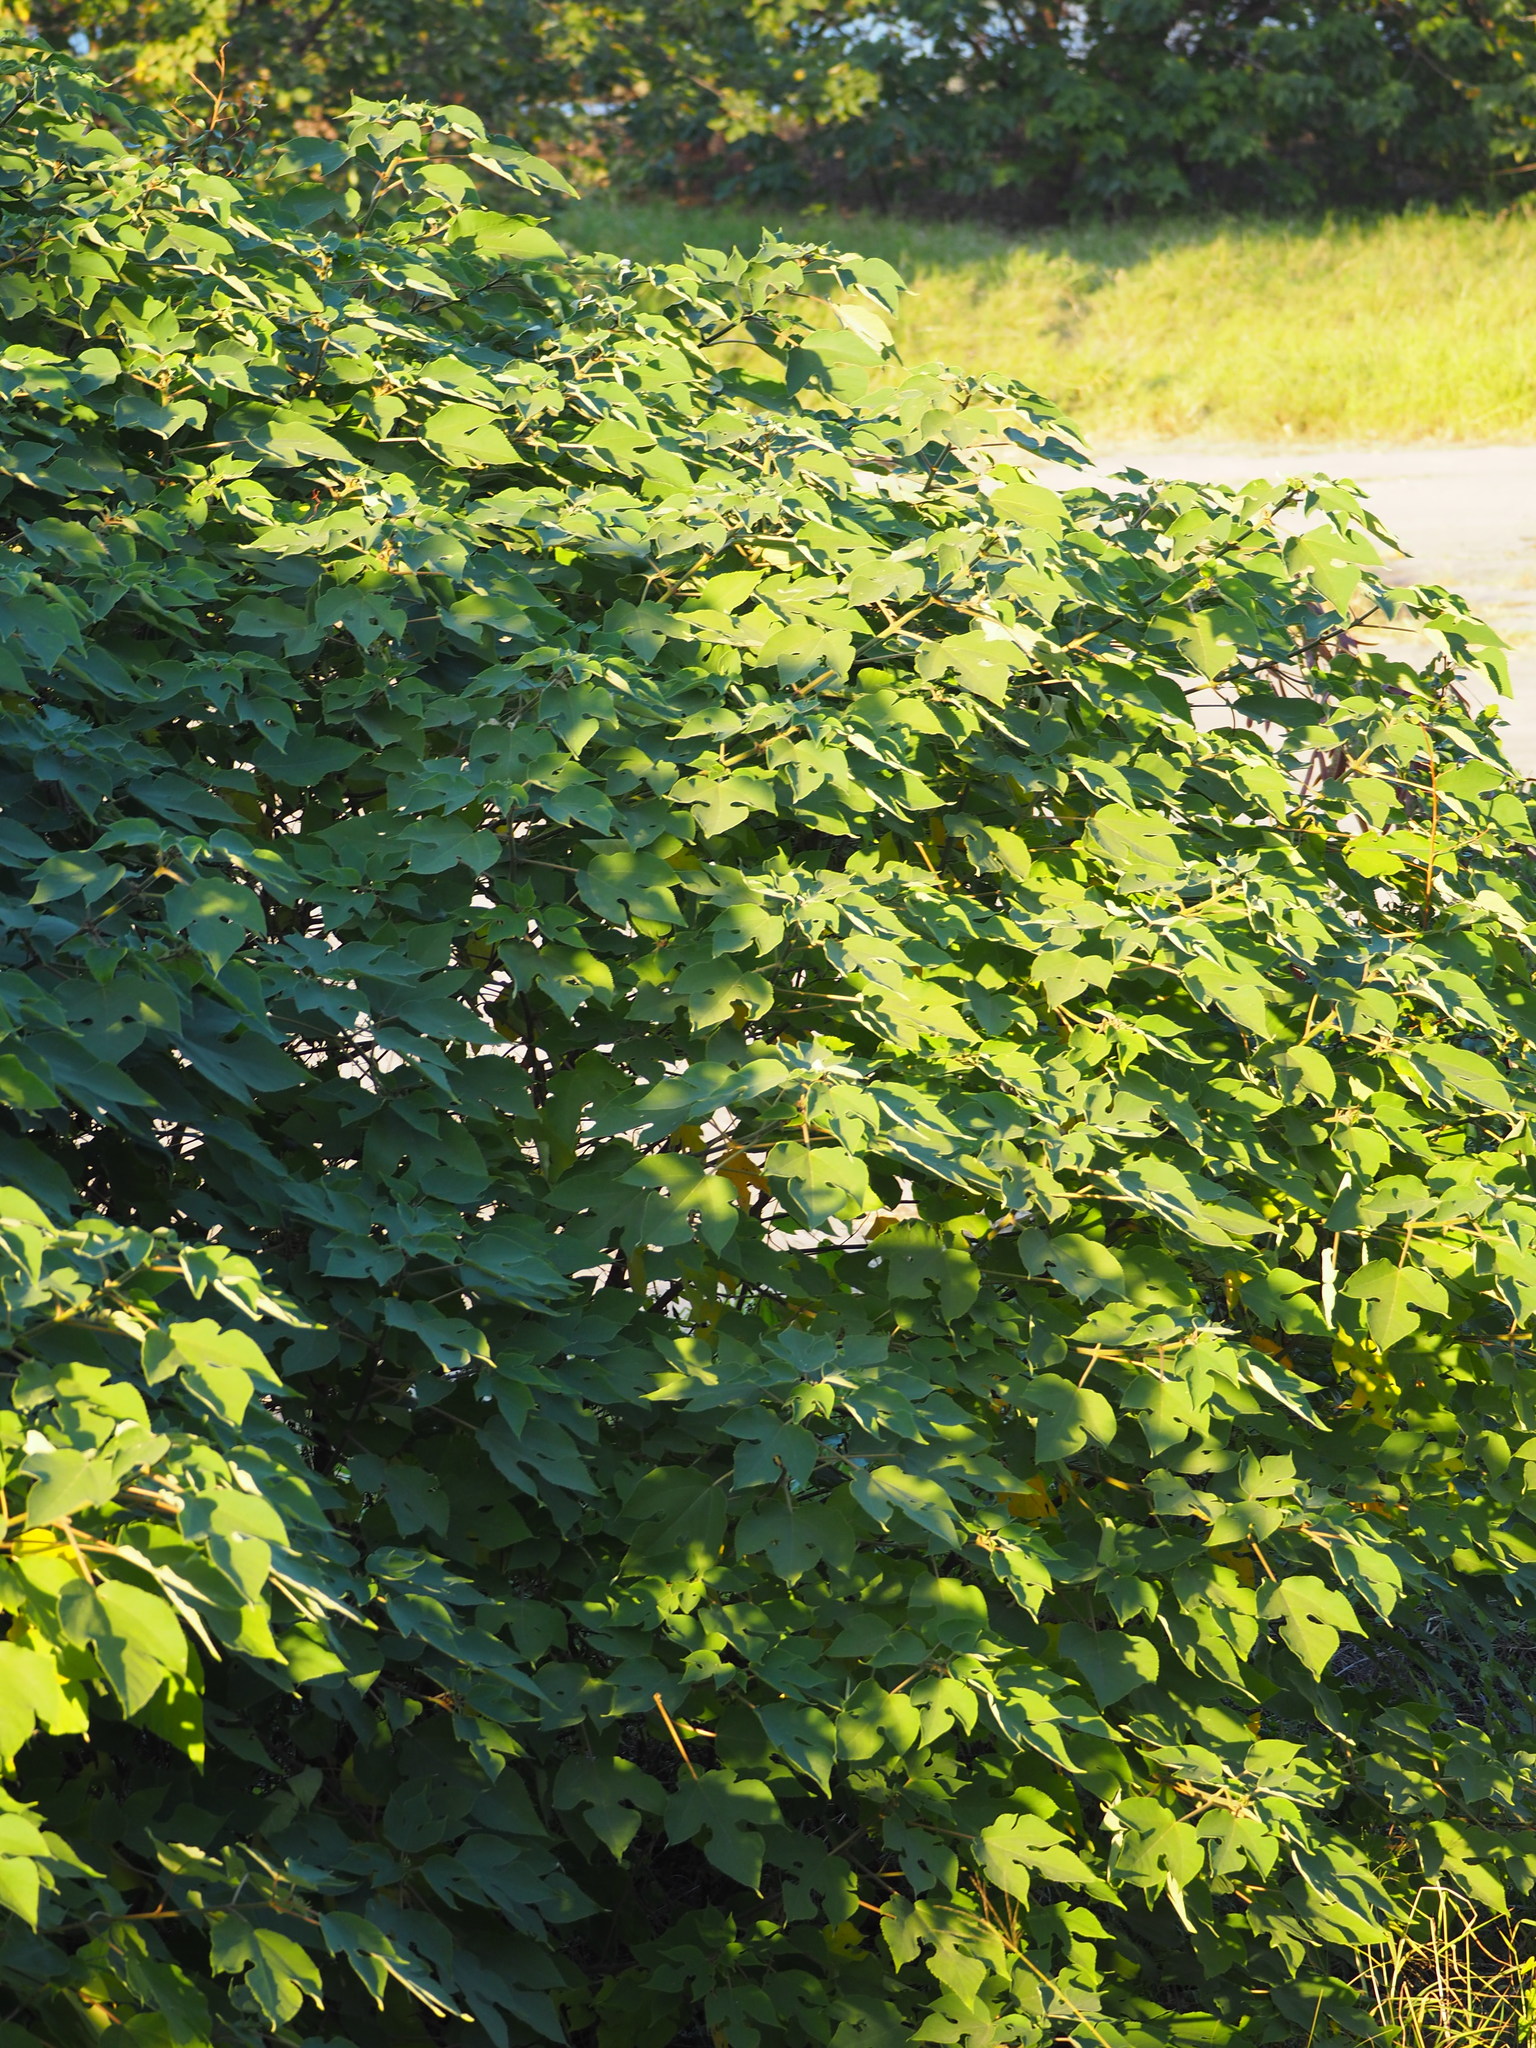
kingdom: Plantae
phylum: Tracheophyta
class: Magnoliopsida
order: Rosales
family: Moraceae
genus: Broussonetia
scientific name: Broussonetia papyrifera
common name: Paper mulberry
